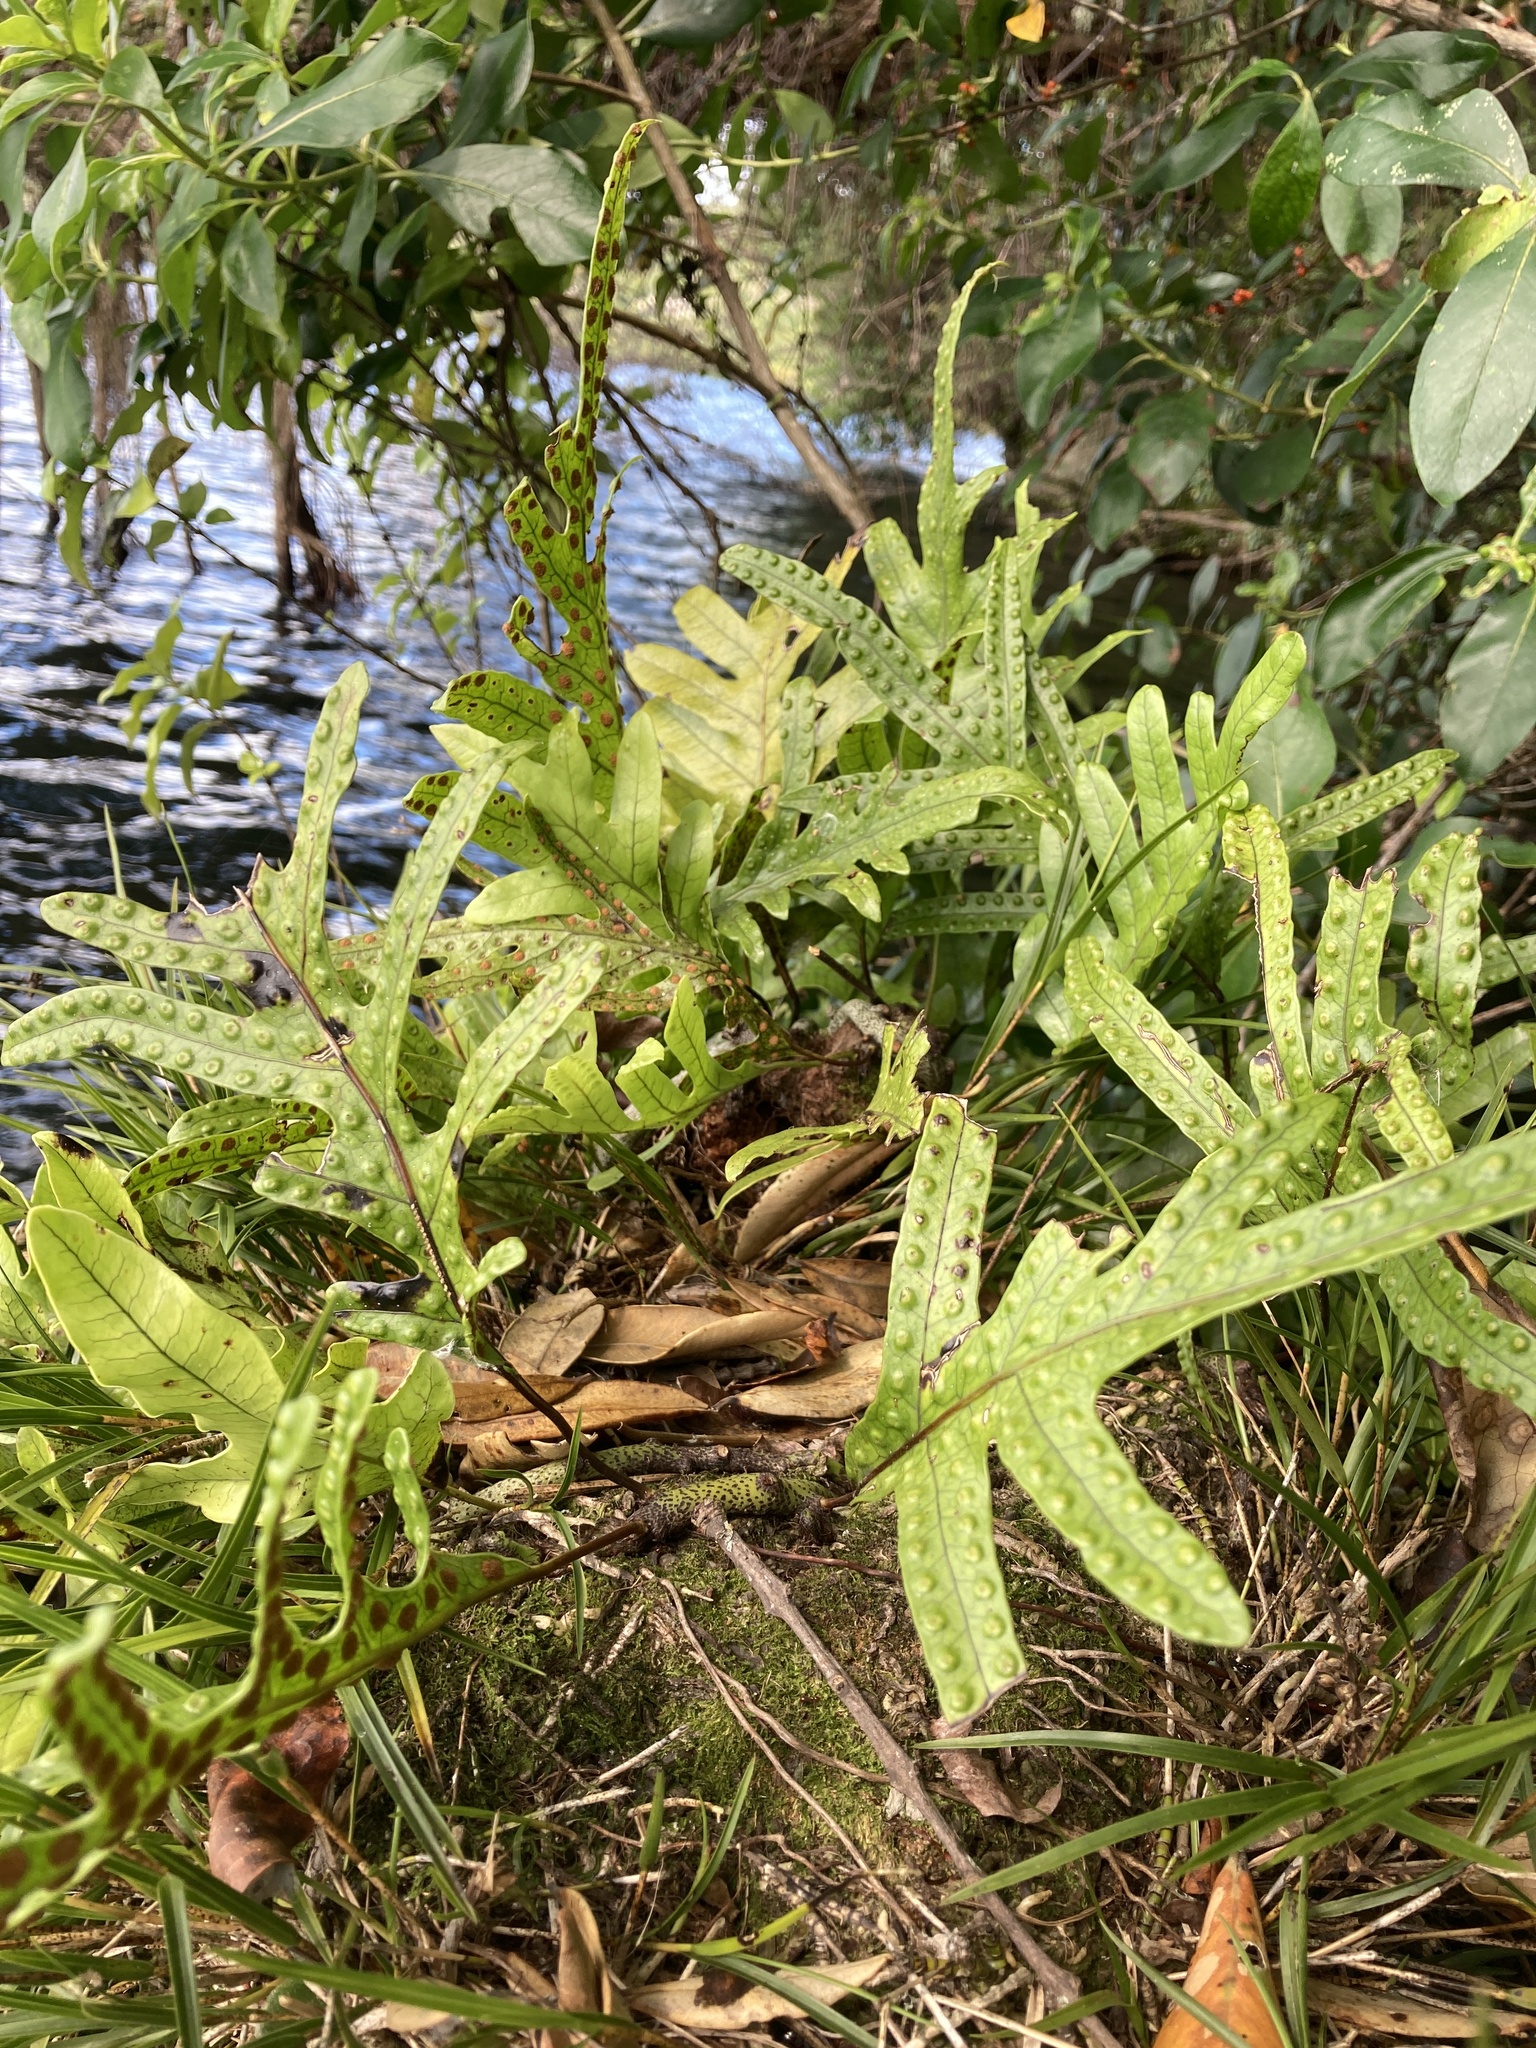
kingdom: Plantae
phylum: Tracheophyta
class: Polypodiopsida
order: Polypodiales
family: Polypodiaceae
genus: Lecanopteris
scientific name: Lecanopteris pustulata
